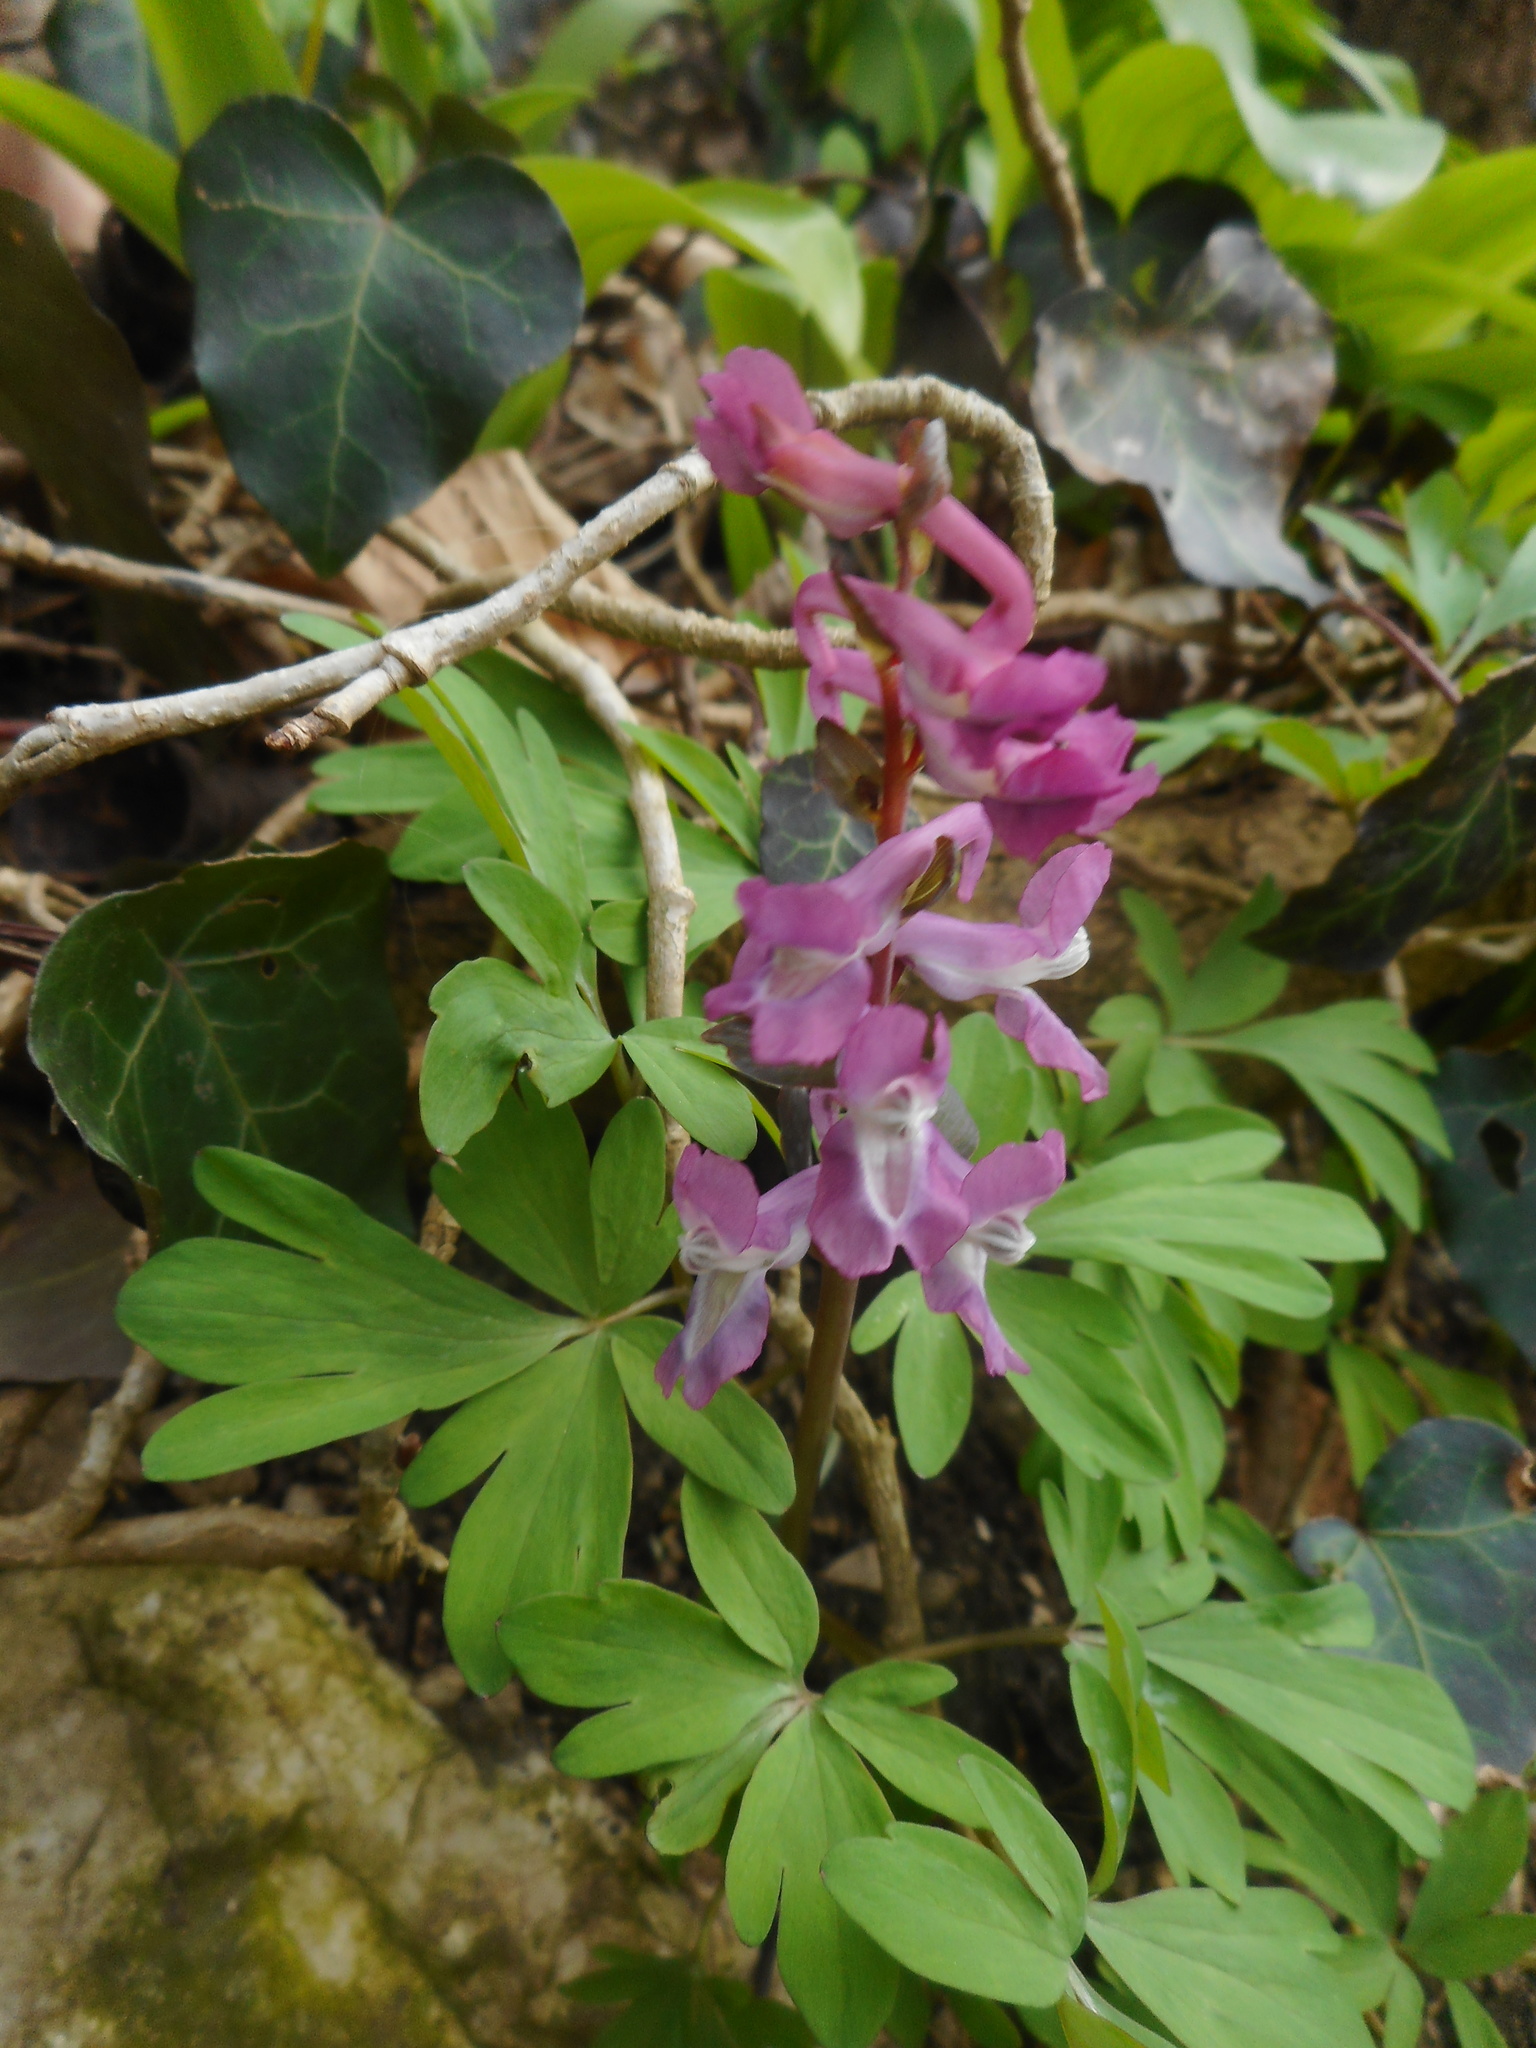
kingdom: Plantae
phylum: Tracheophyta
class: Magnoliopsida
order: Ranunculales
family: Papaveraceae
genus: Corydalis
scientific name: Corydalis cava
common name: Hollowroot
